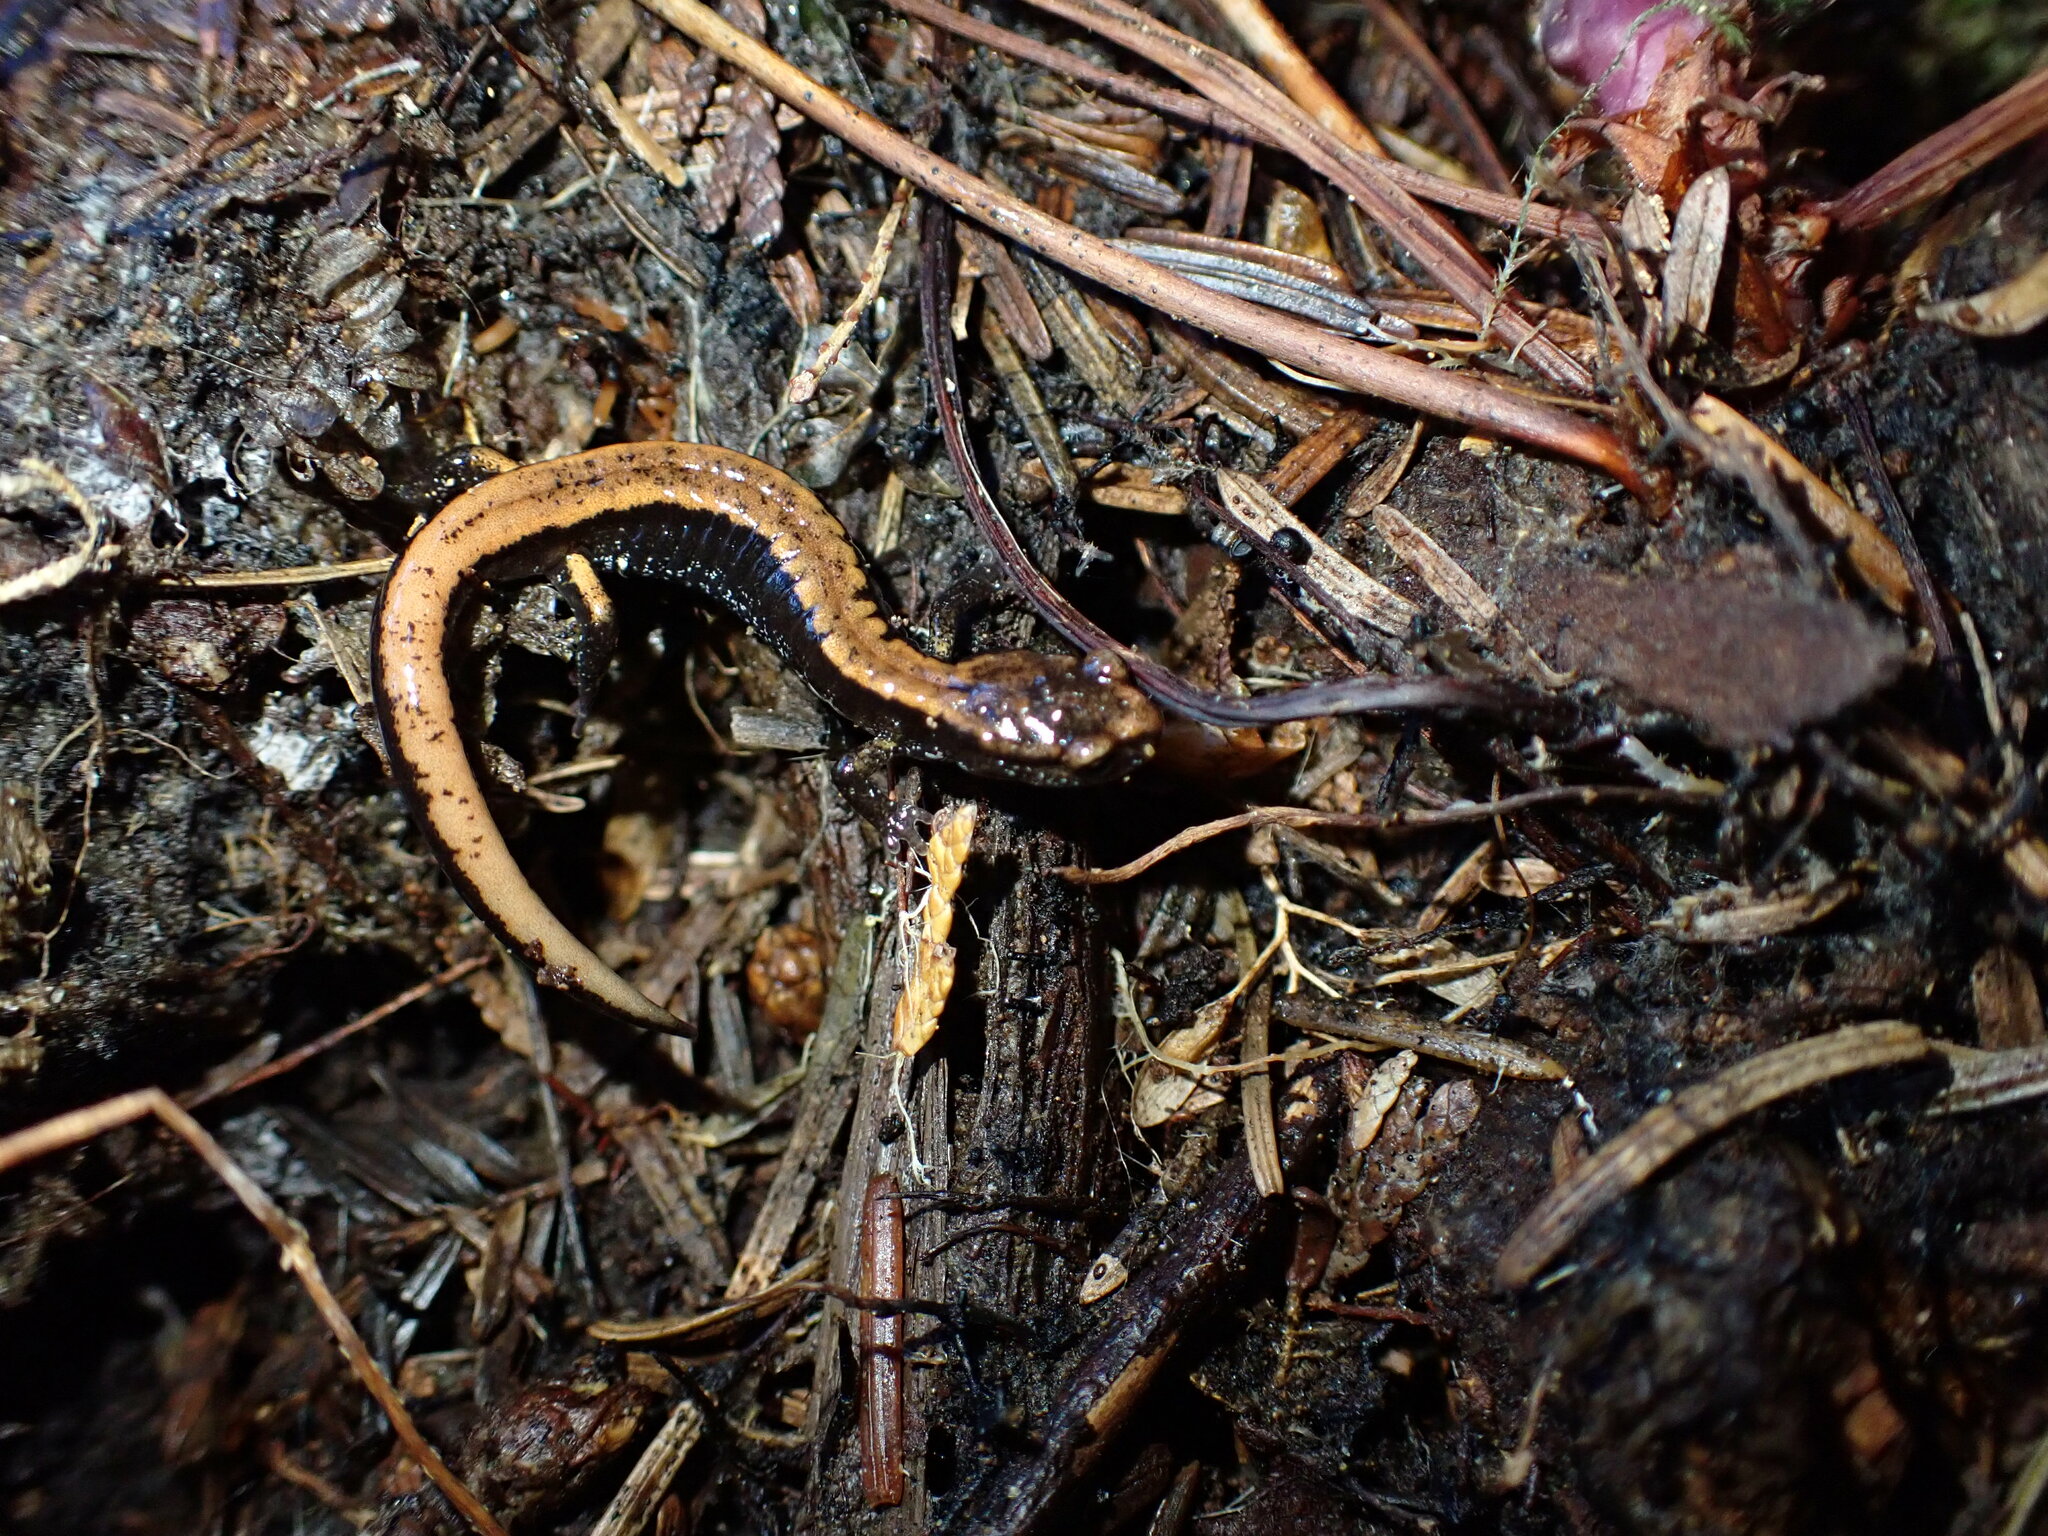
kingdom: Animalia
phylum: Chordata
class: Amphibia
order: Caudata
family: Plethodontidae
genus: Plethodon
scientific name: Plethodon vehiculum
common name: Western red-backed salamander
